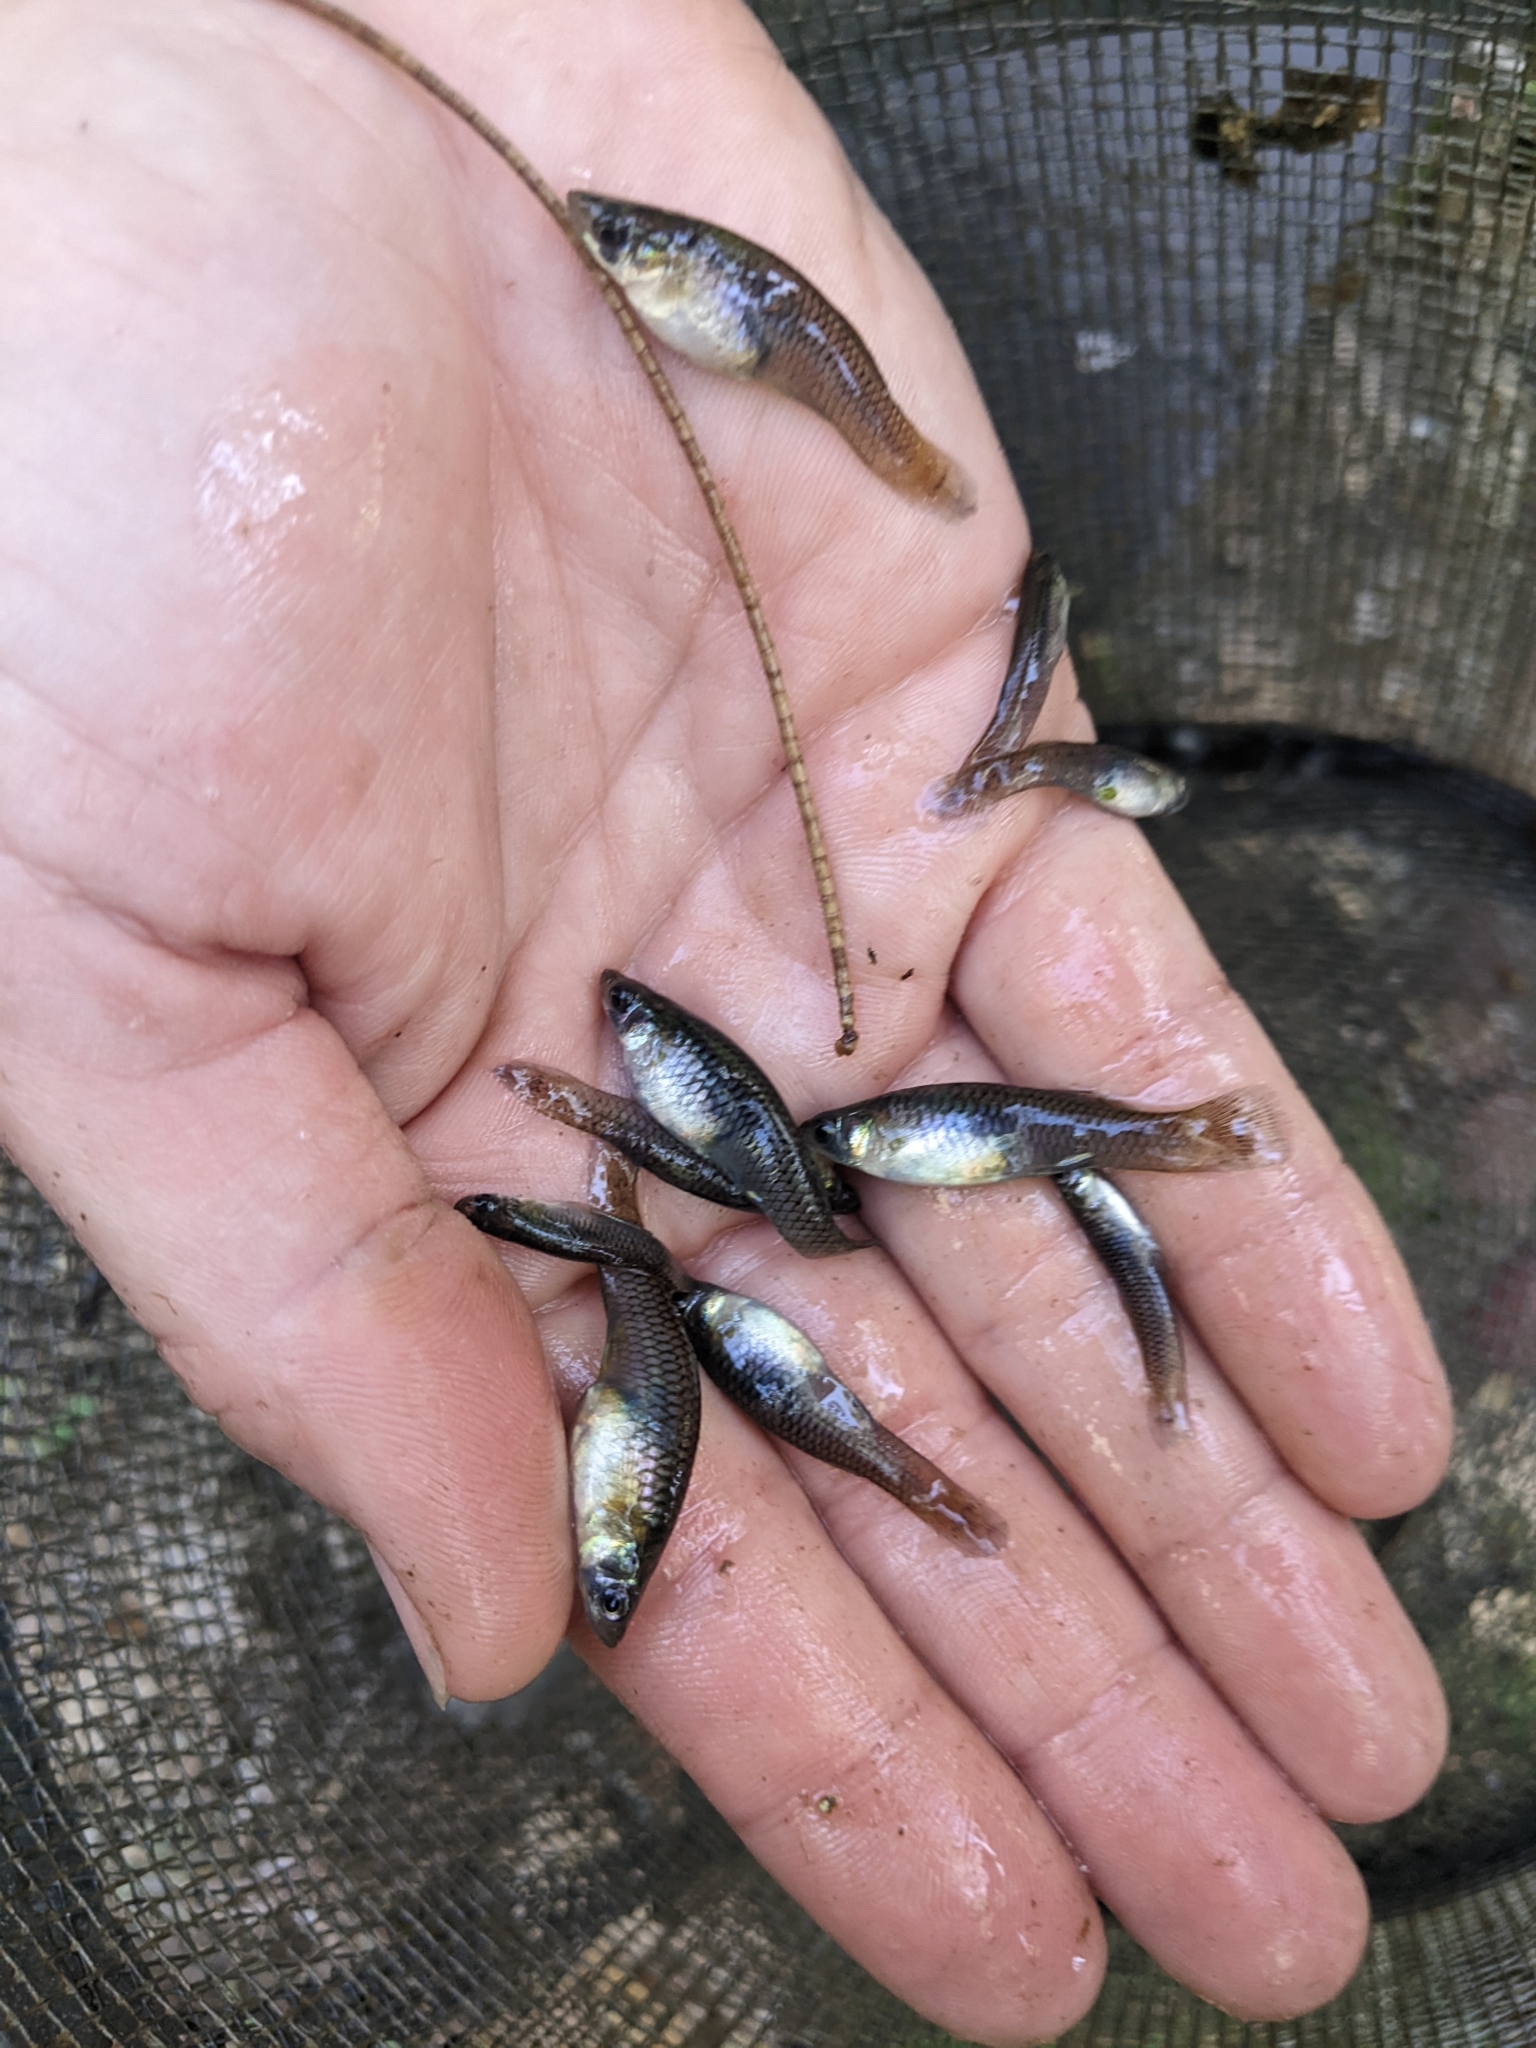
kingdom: Animalia
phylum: Chordata
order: Cyprinodontiformes
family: Poeciliidae
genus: Gambusia
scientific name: Gambusia affinis
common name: Mosquitofish
